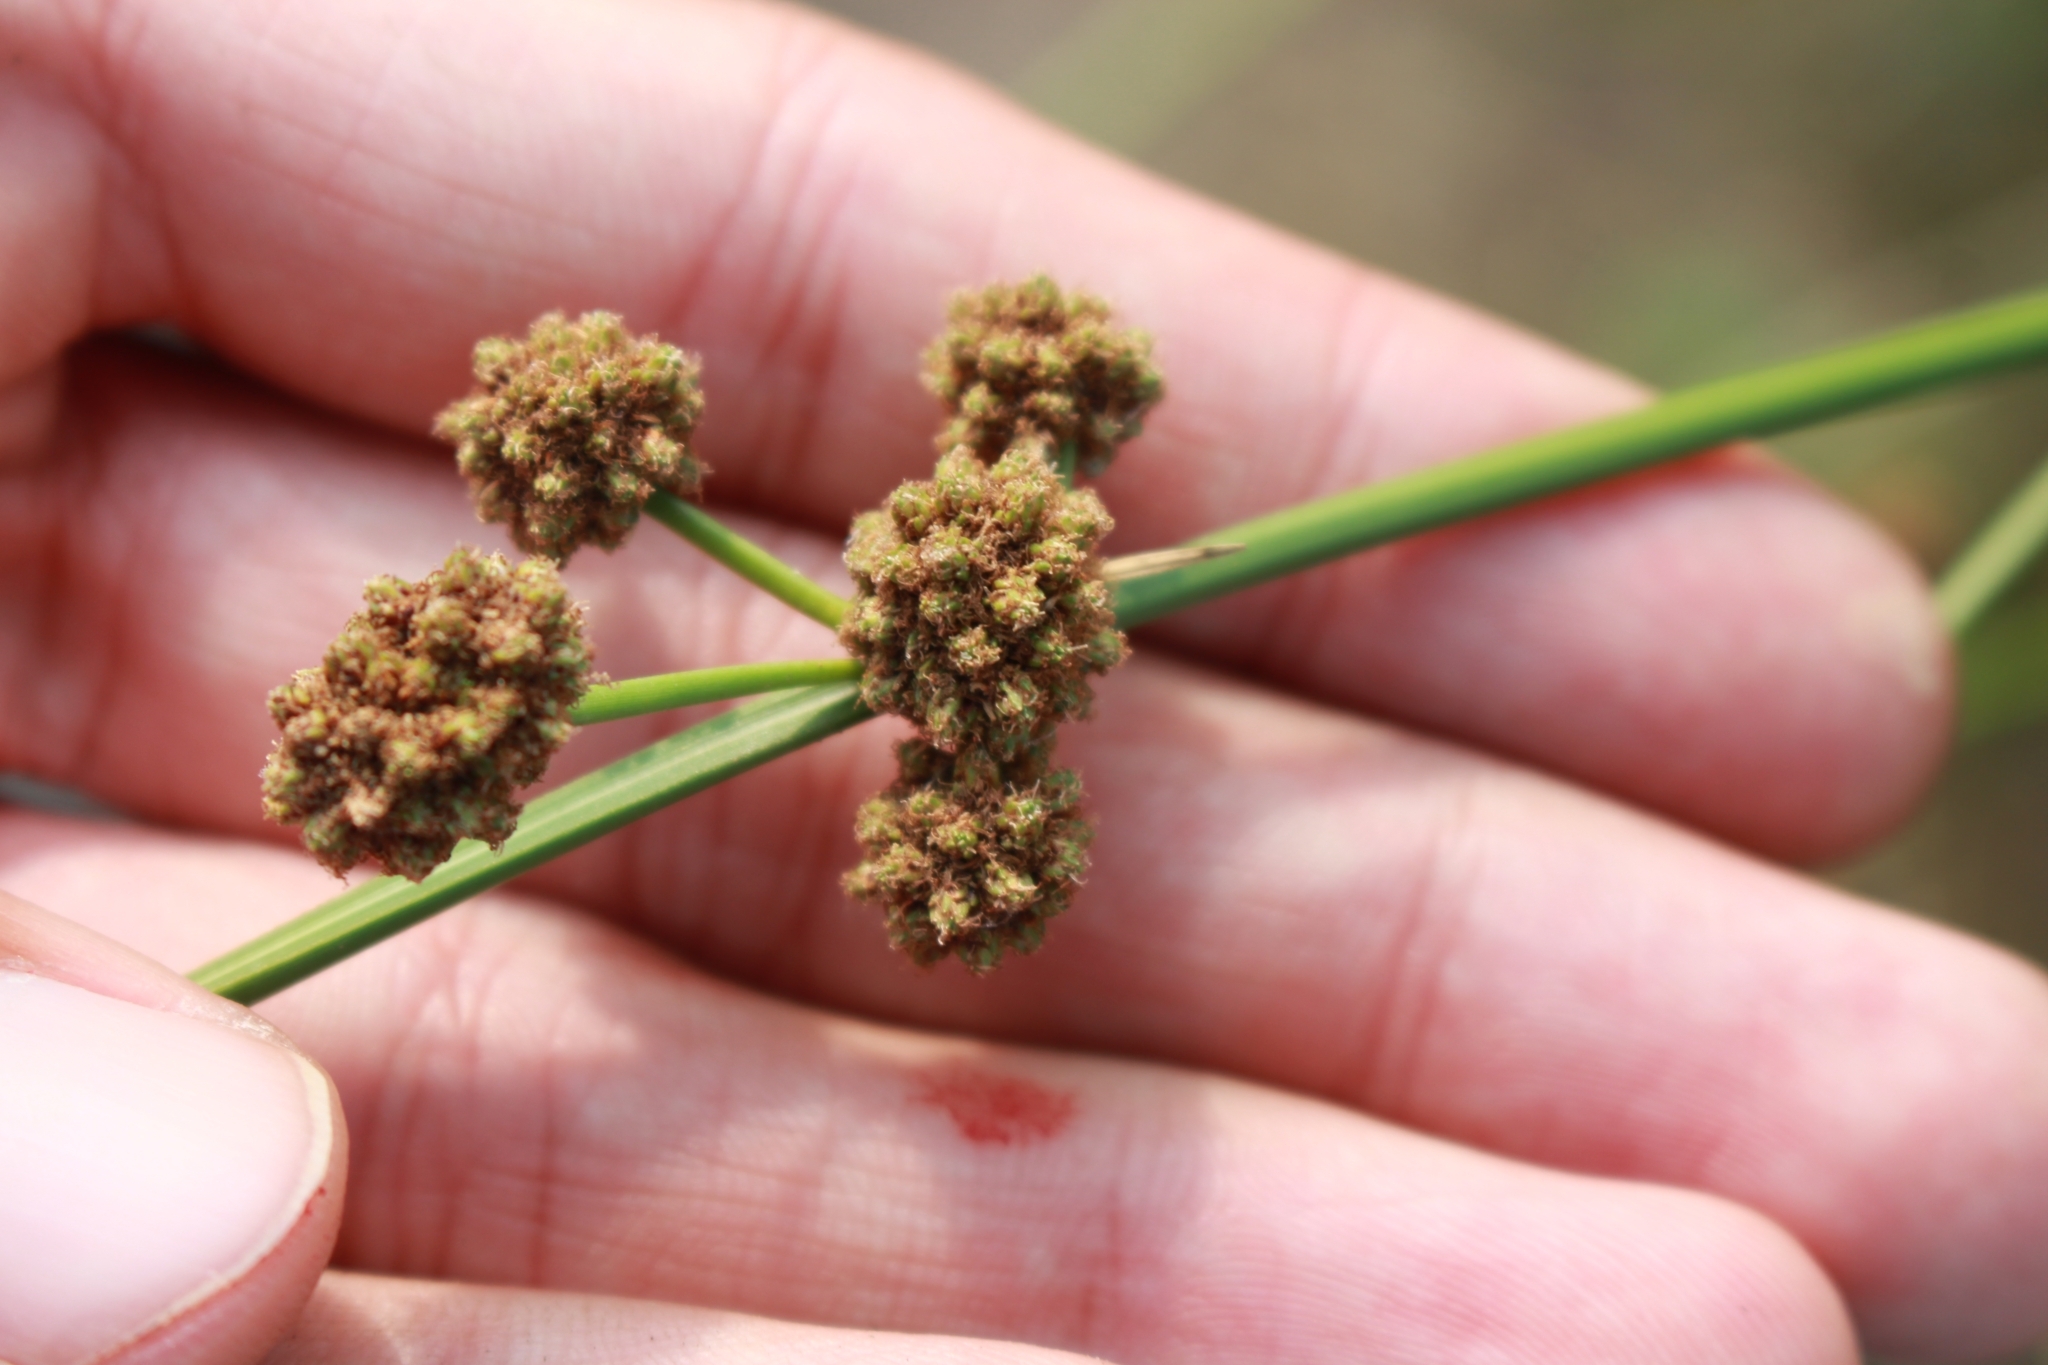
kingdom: Plantae
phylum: Tracheophyta
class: Liliopsida
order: Poales
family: Cyperaceae
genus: Scirpoides
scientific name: Scirpoides holoschoenus
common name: Round-headed club-rush
